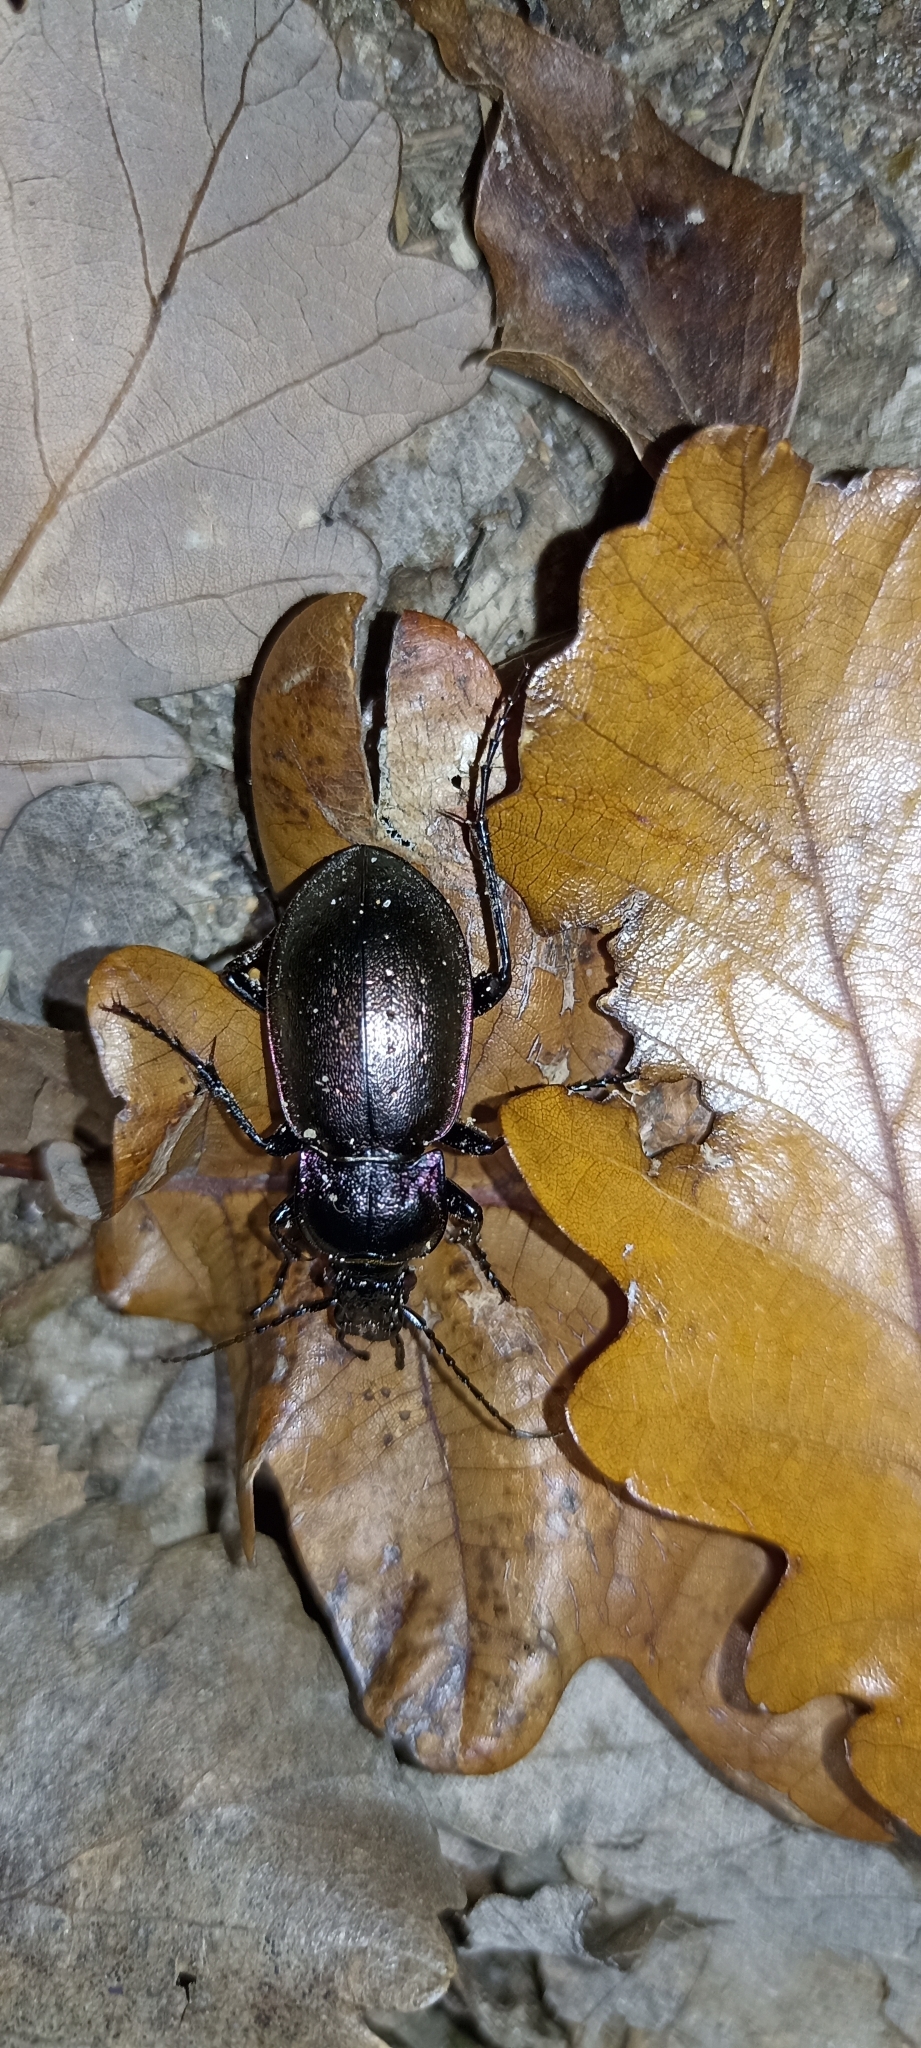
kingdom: Animalia
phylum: Arthropoda
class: Insecta
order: Coleoptera
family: Carabidae
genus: Carabus
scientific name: Carabus nemoralis
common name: European ground beetle
